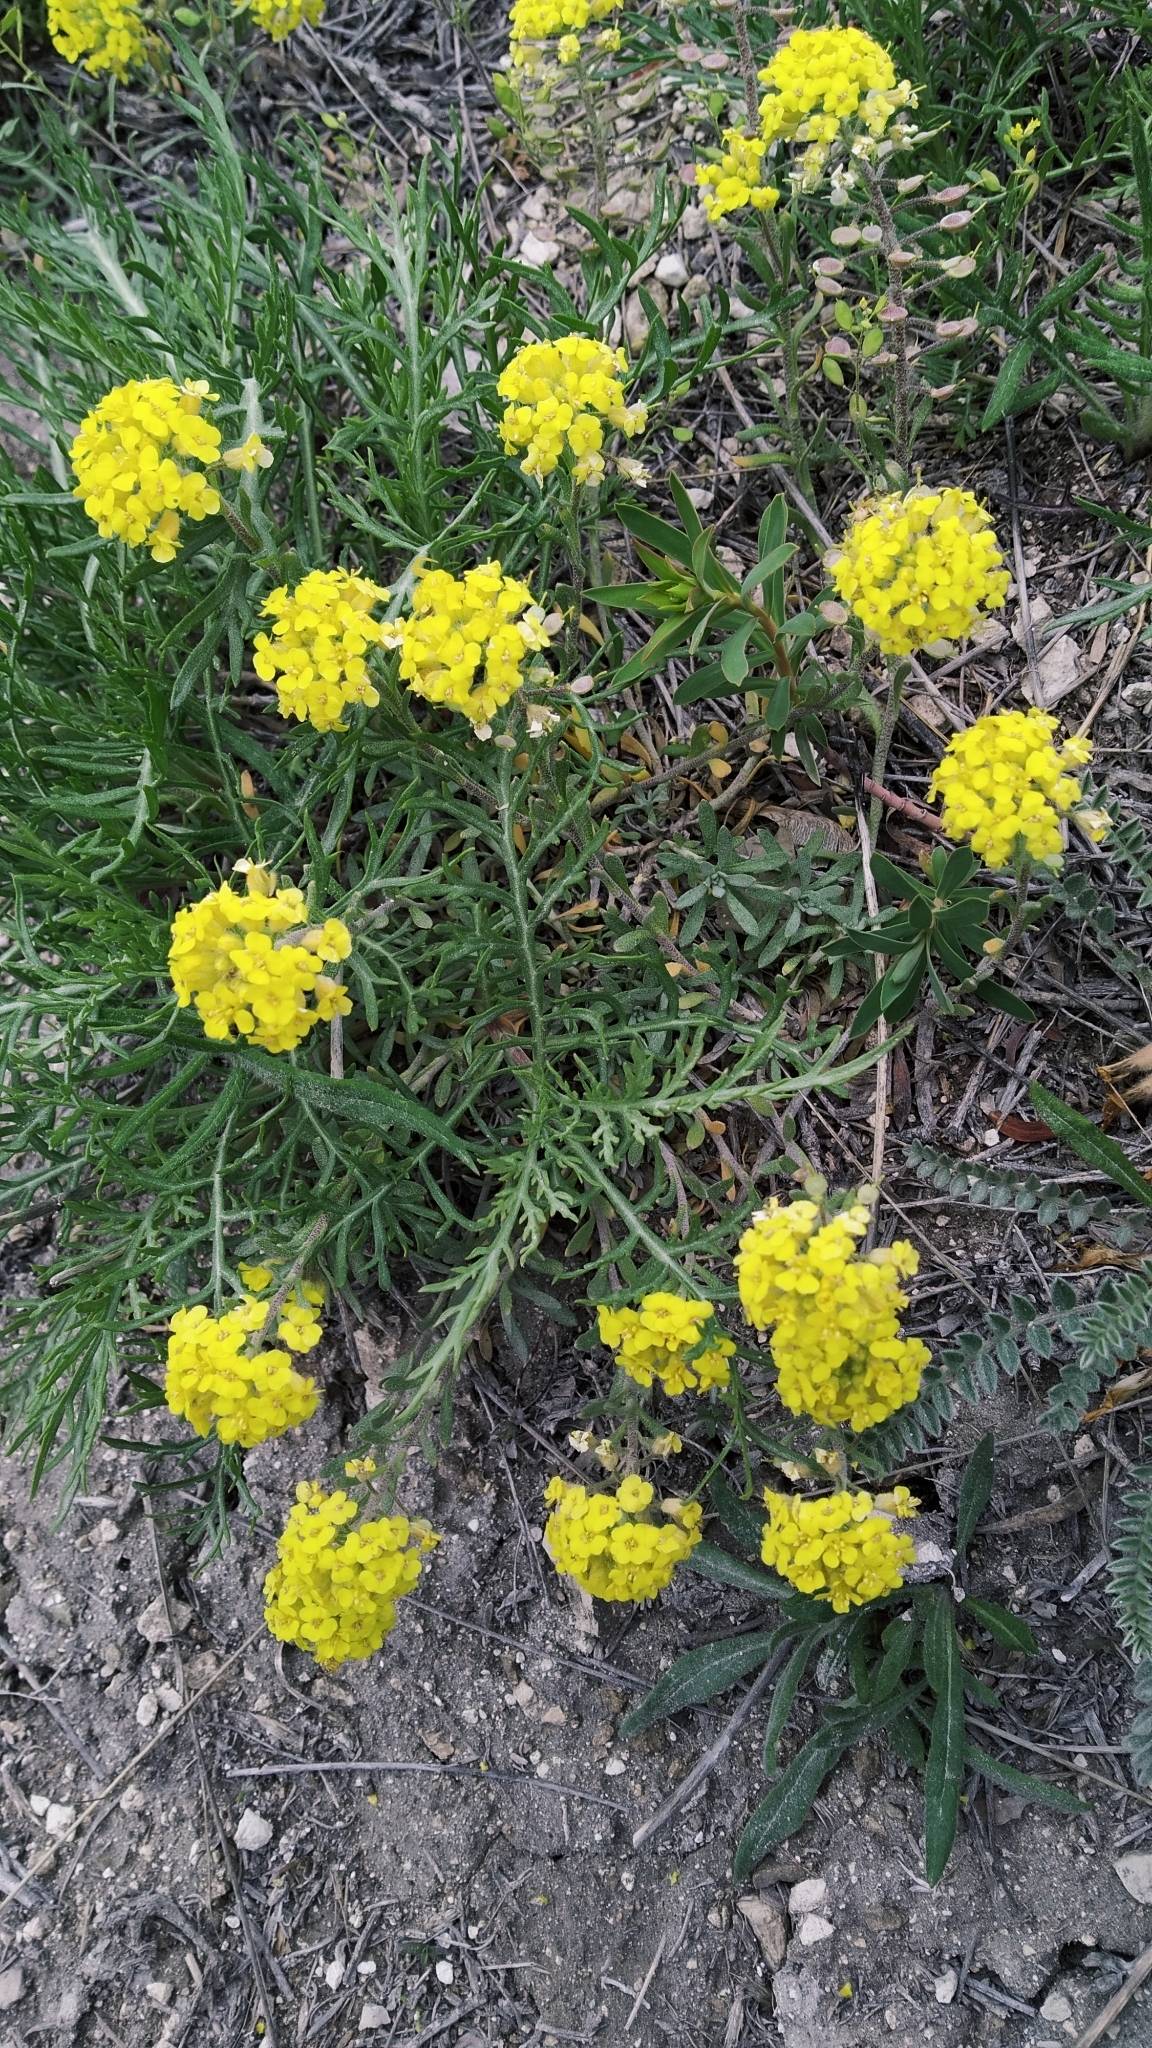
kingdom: Plantae
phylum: Tracheophyta
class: Magnoliopsida
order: Brassicales
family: Brassicaceae
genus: Alyssum
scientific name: Alyssum lenense
